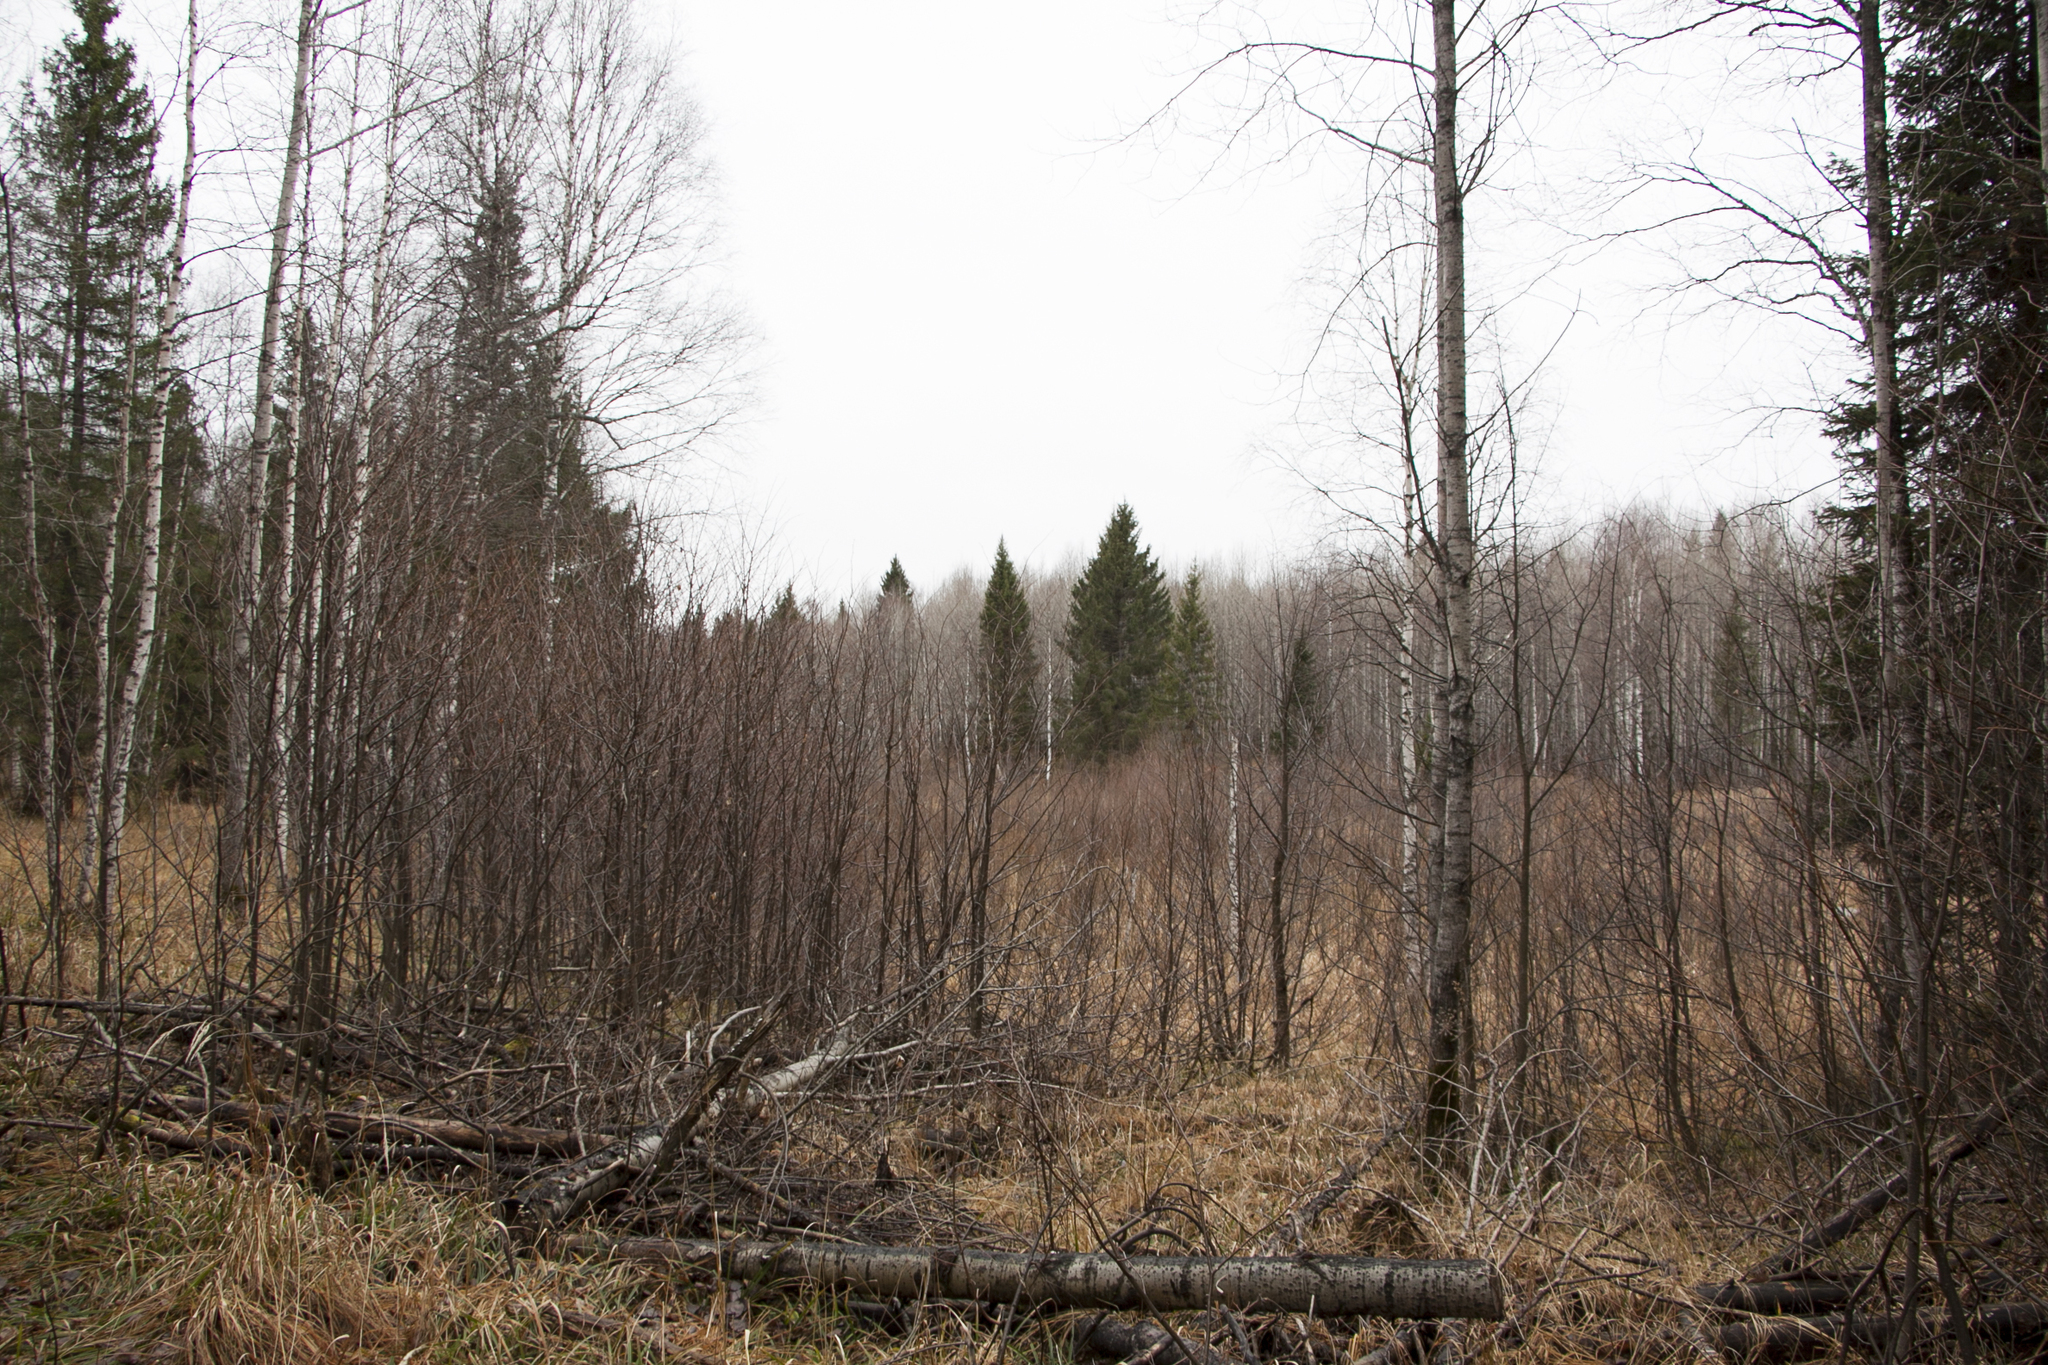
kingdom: Plantae
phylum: Tracheophyta
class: Pinopsida
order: Pinales
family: Pinaceae
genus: Picea
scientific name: Picea obovata
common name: Siberian spruce
